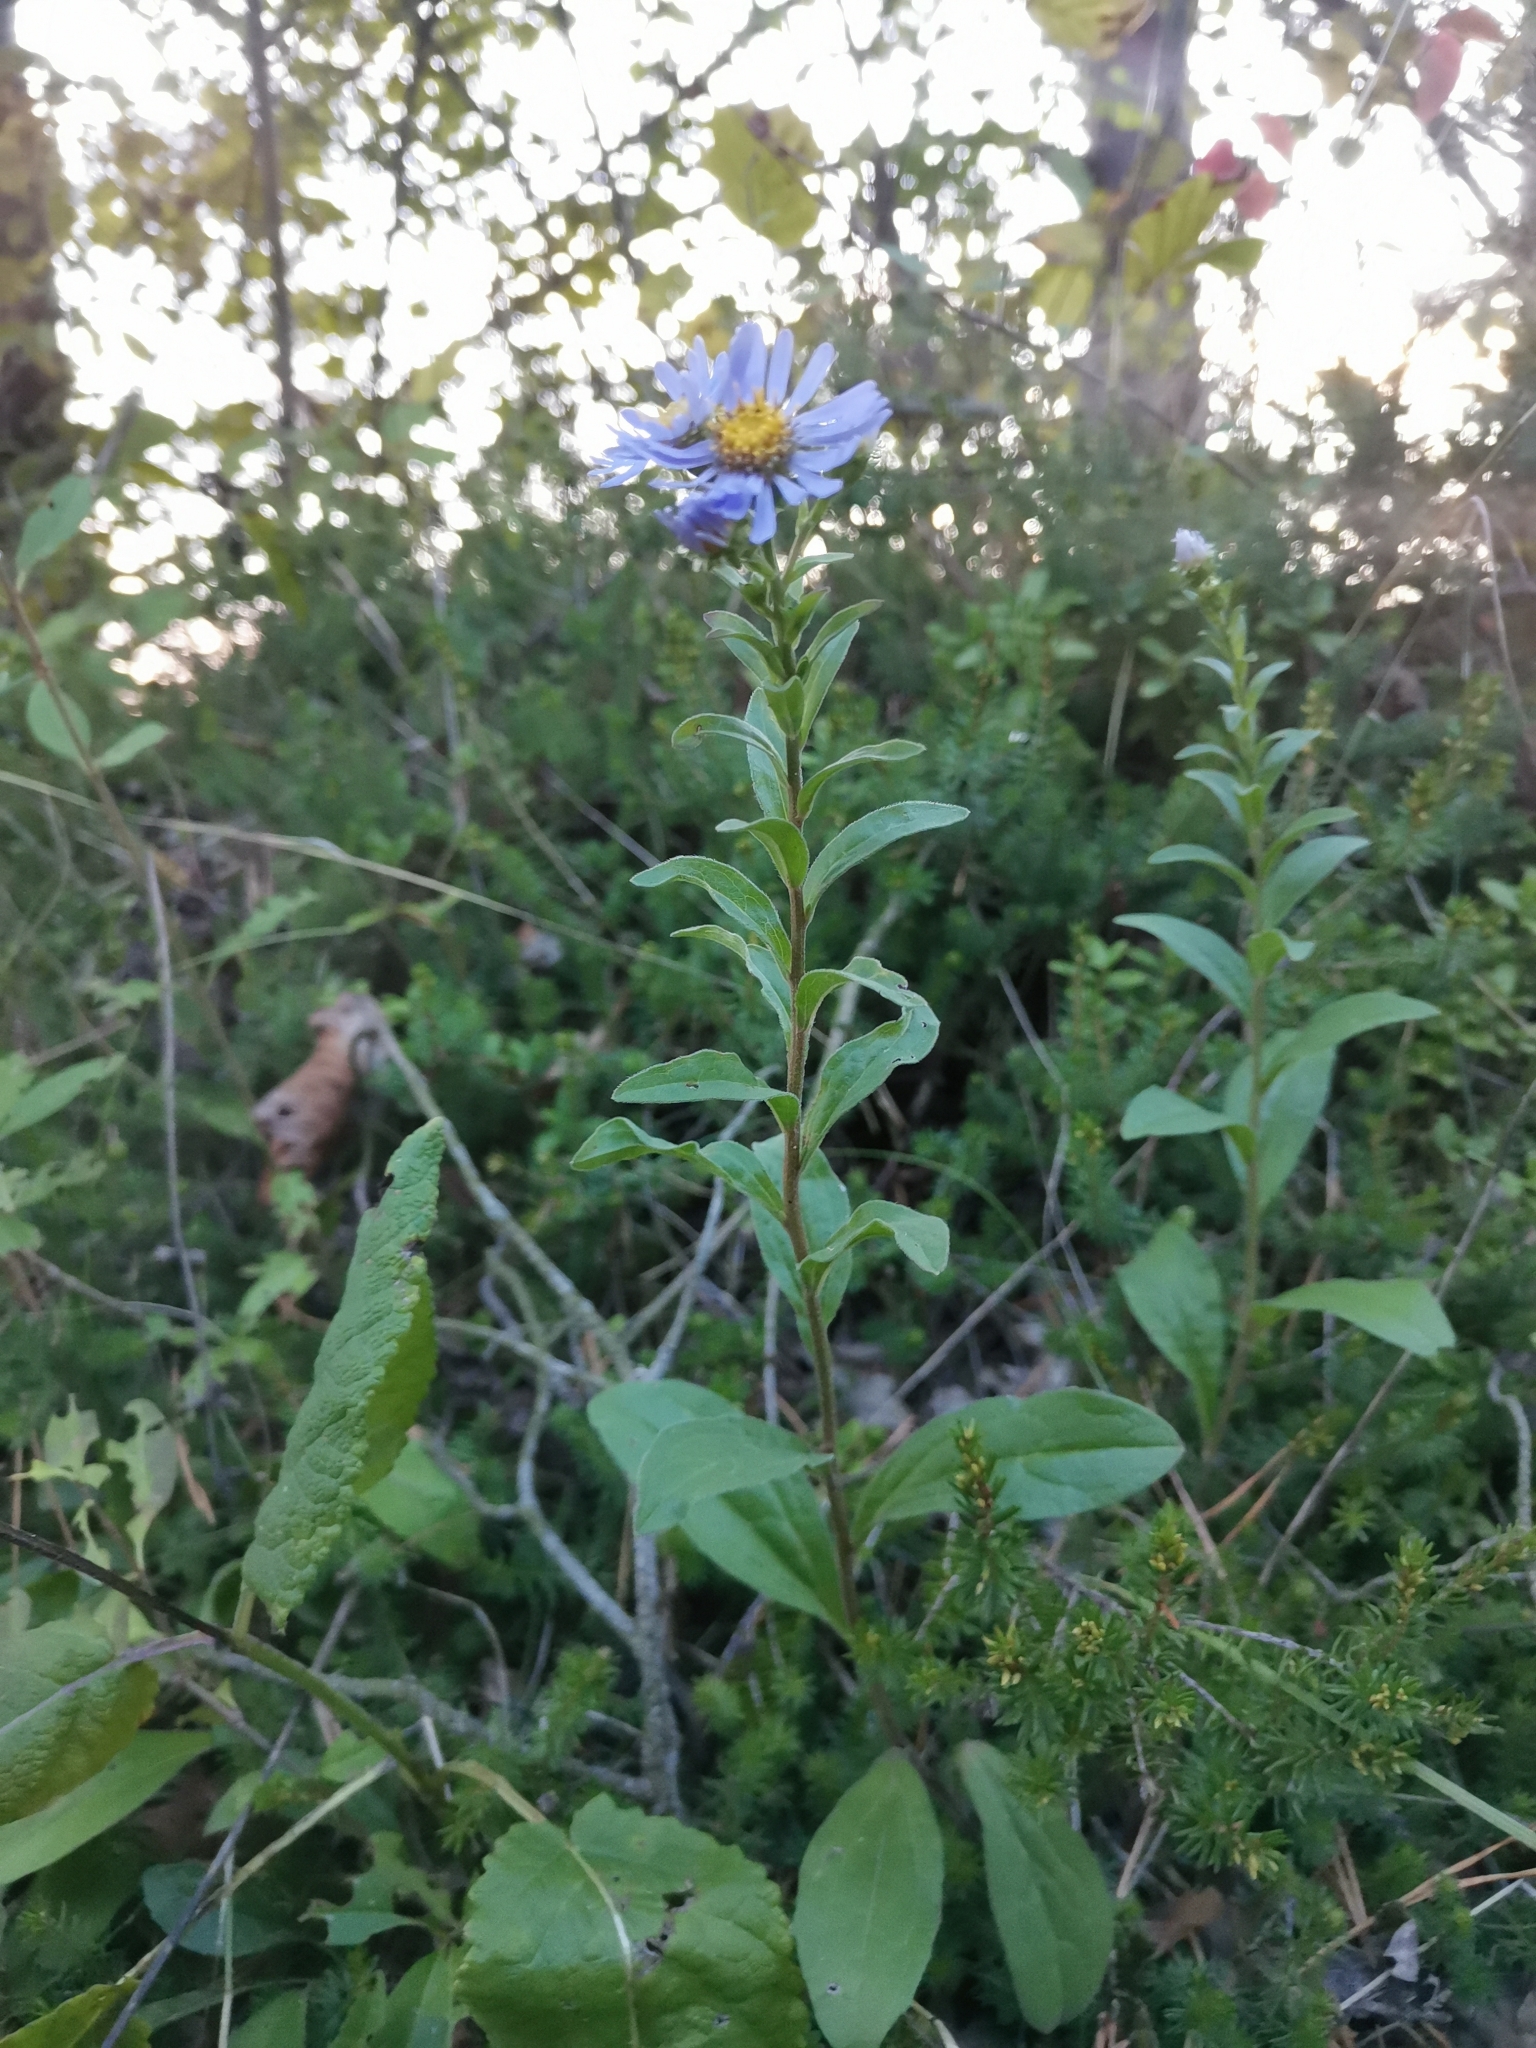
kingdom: Plantae
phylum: Tracheophyta
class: Magnoliopsida
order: Asterales
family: Asteraceae
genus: Aster
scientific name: Aster amellus
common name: European michaelmas daisy
